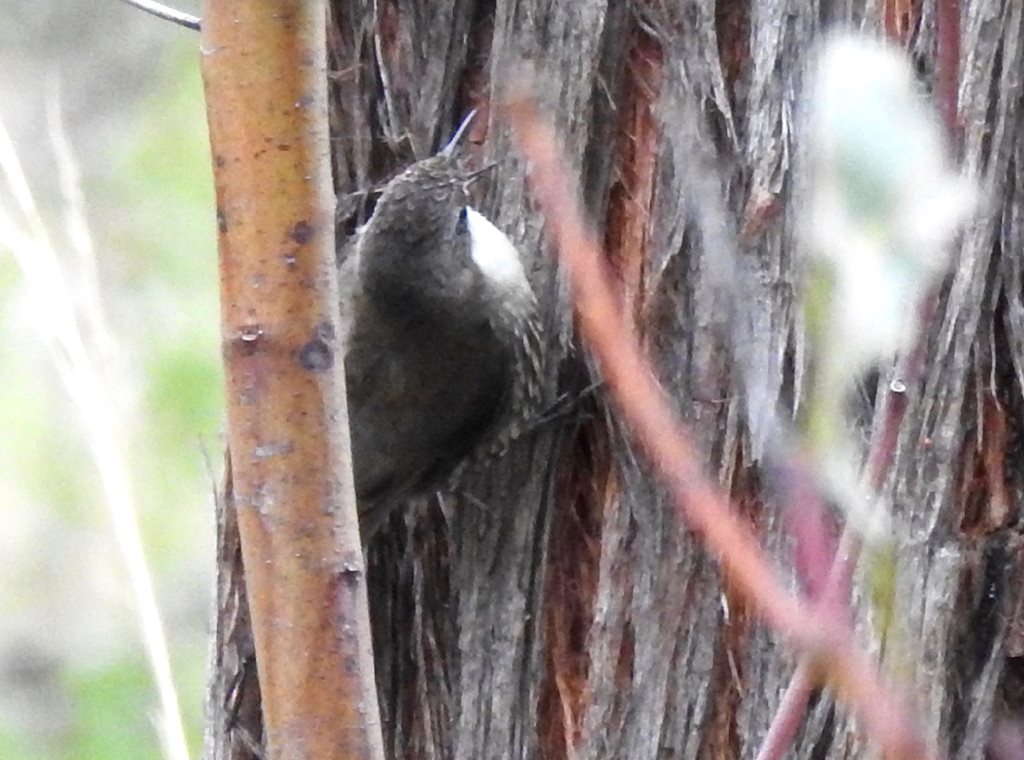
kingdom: Animalia
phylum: Chordata
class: Aves
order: Passeriformes
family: Climacteridae
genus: Cormobates
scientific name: Cormobates leucophaea
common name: White-throated treecreeper
